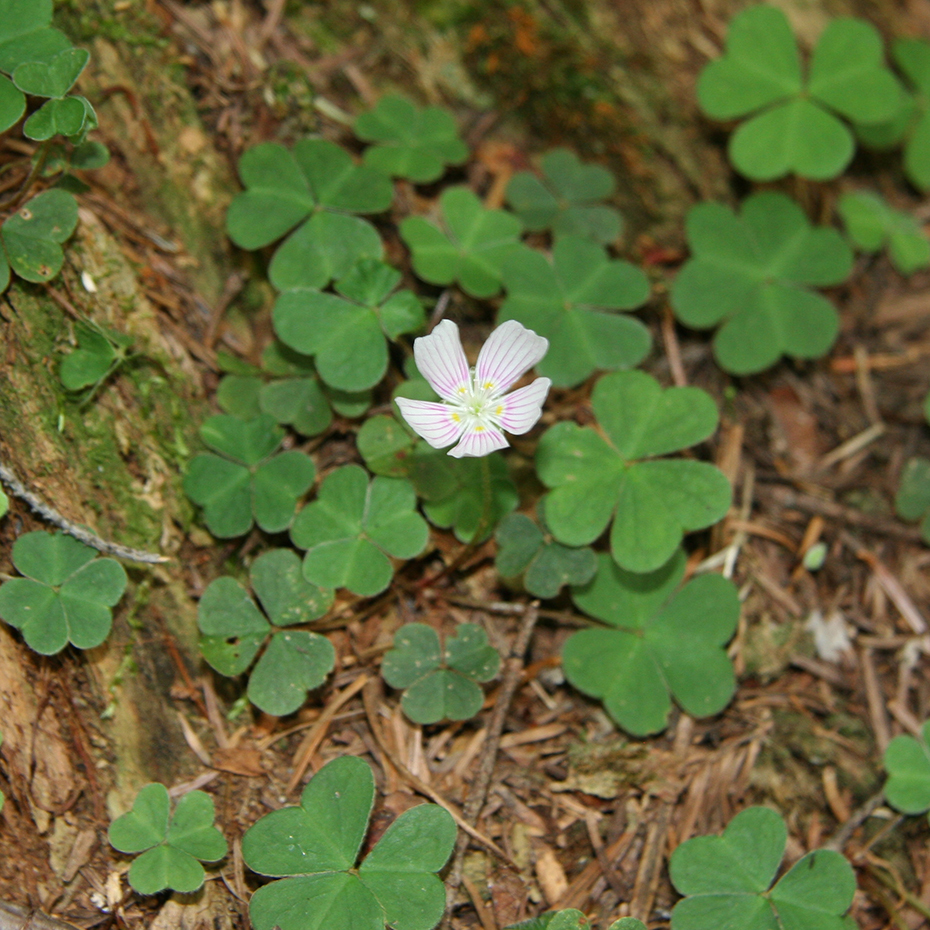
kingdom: Plantae
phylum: Tracheophyta
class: Magnoliopsida
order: Oxalidales
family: Oxalidaceae
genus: Oxalis
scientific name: Oxalis montana
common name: American wood-sorrel
